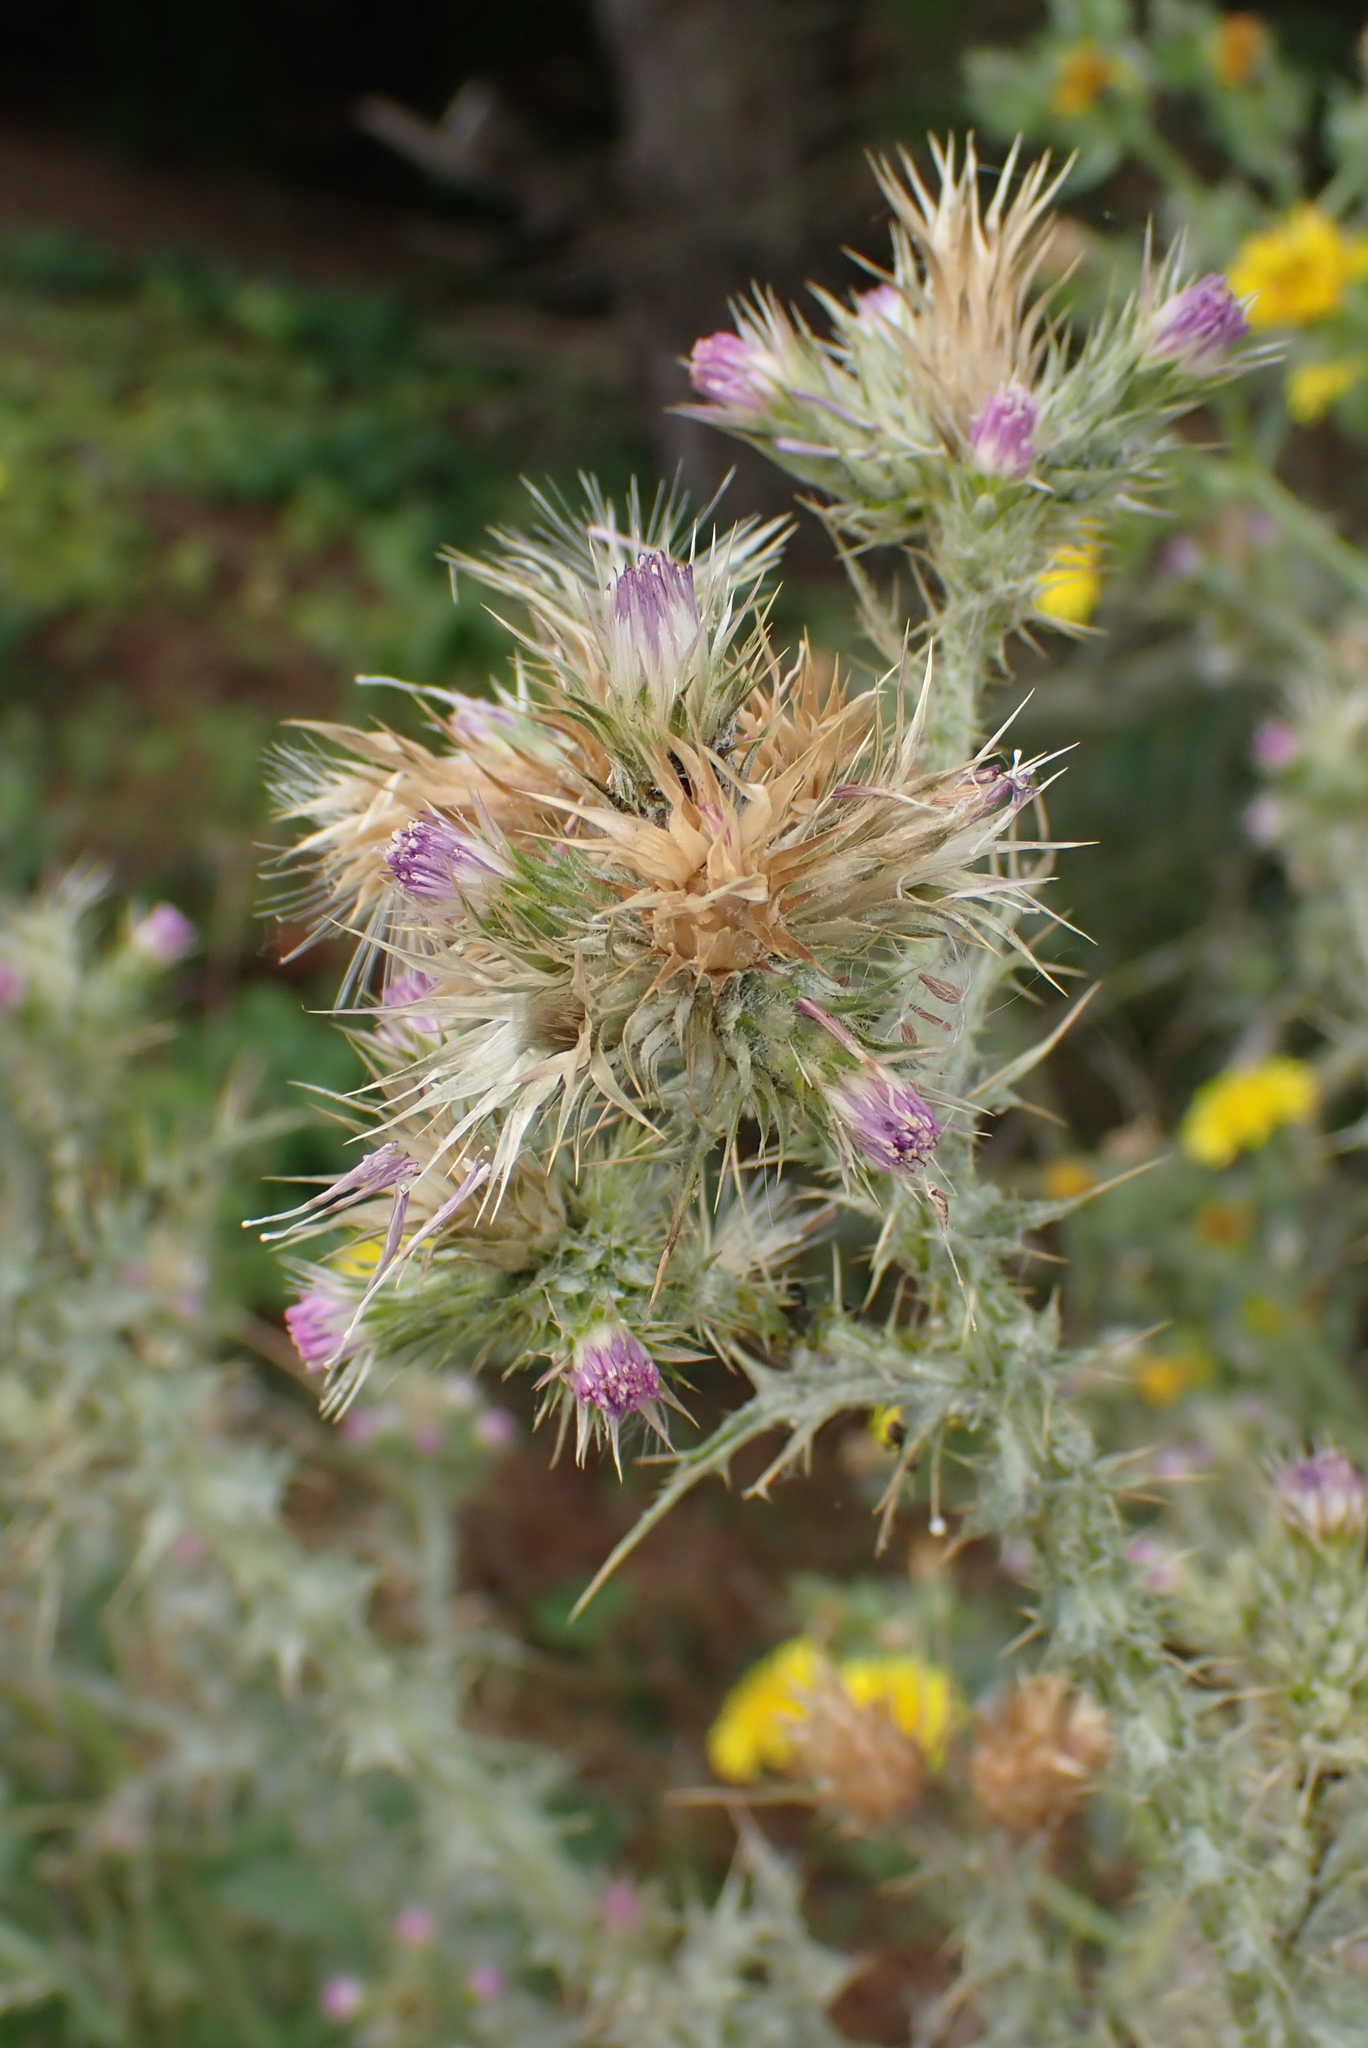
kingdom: Plantae
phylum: Tracheophyta
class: Magnoliopsida
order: Asterales
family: Asteraceae
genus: Carduus
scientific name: Carduus tenuiflorus
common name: Slender thistle
